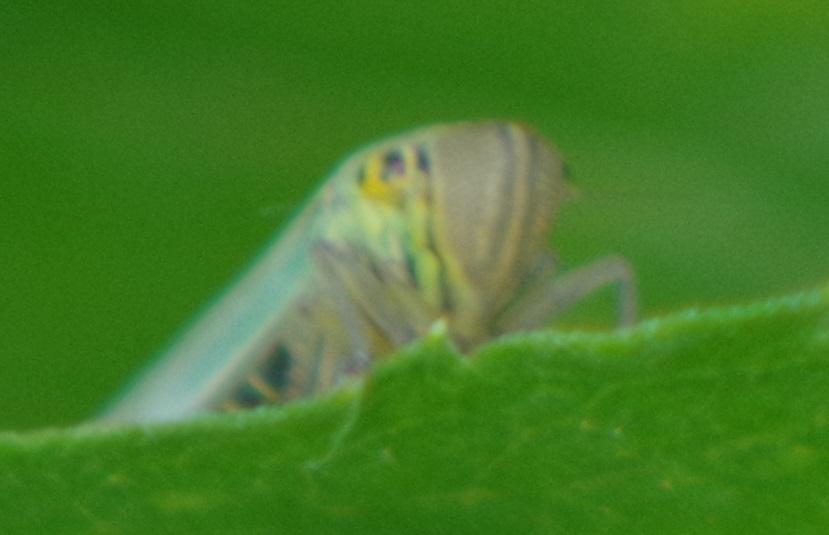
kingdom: Animalia
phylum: Arthropoda
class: Insecta
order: Hemiptera
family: Cicadellidae
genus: Cicadella
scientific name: Cicadella viridis
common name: Leafhopper
